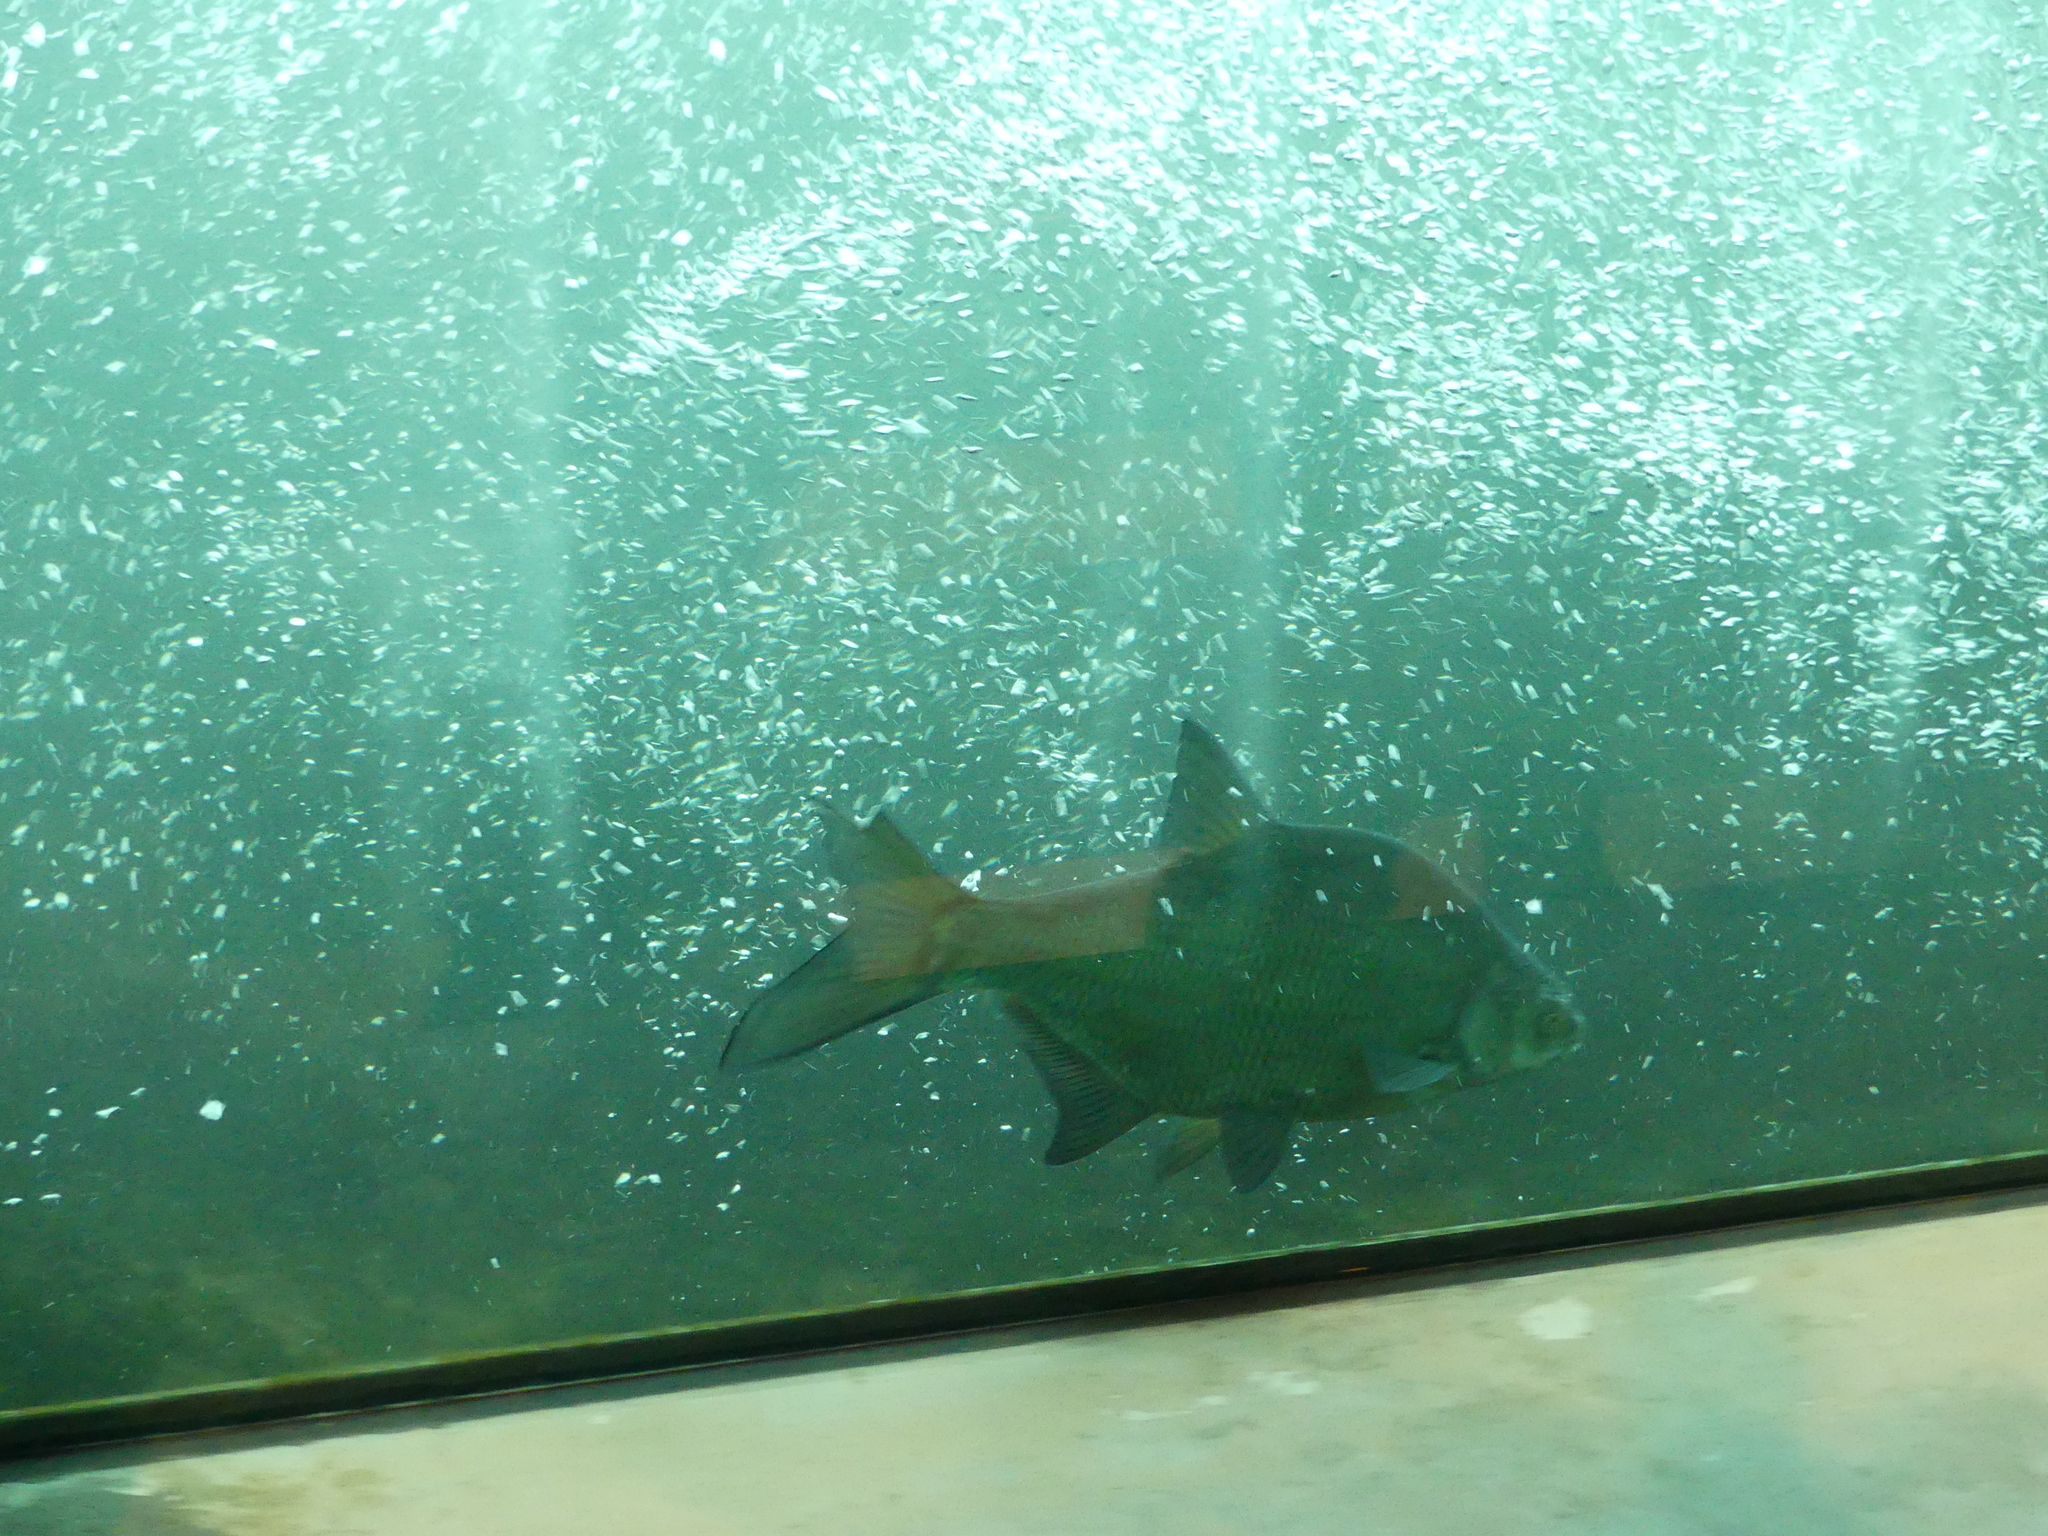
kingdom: Animalia
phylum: Chordata
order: Cypriniformes
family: Cyprinidae
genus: Abramis
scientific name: Abramis brama
